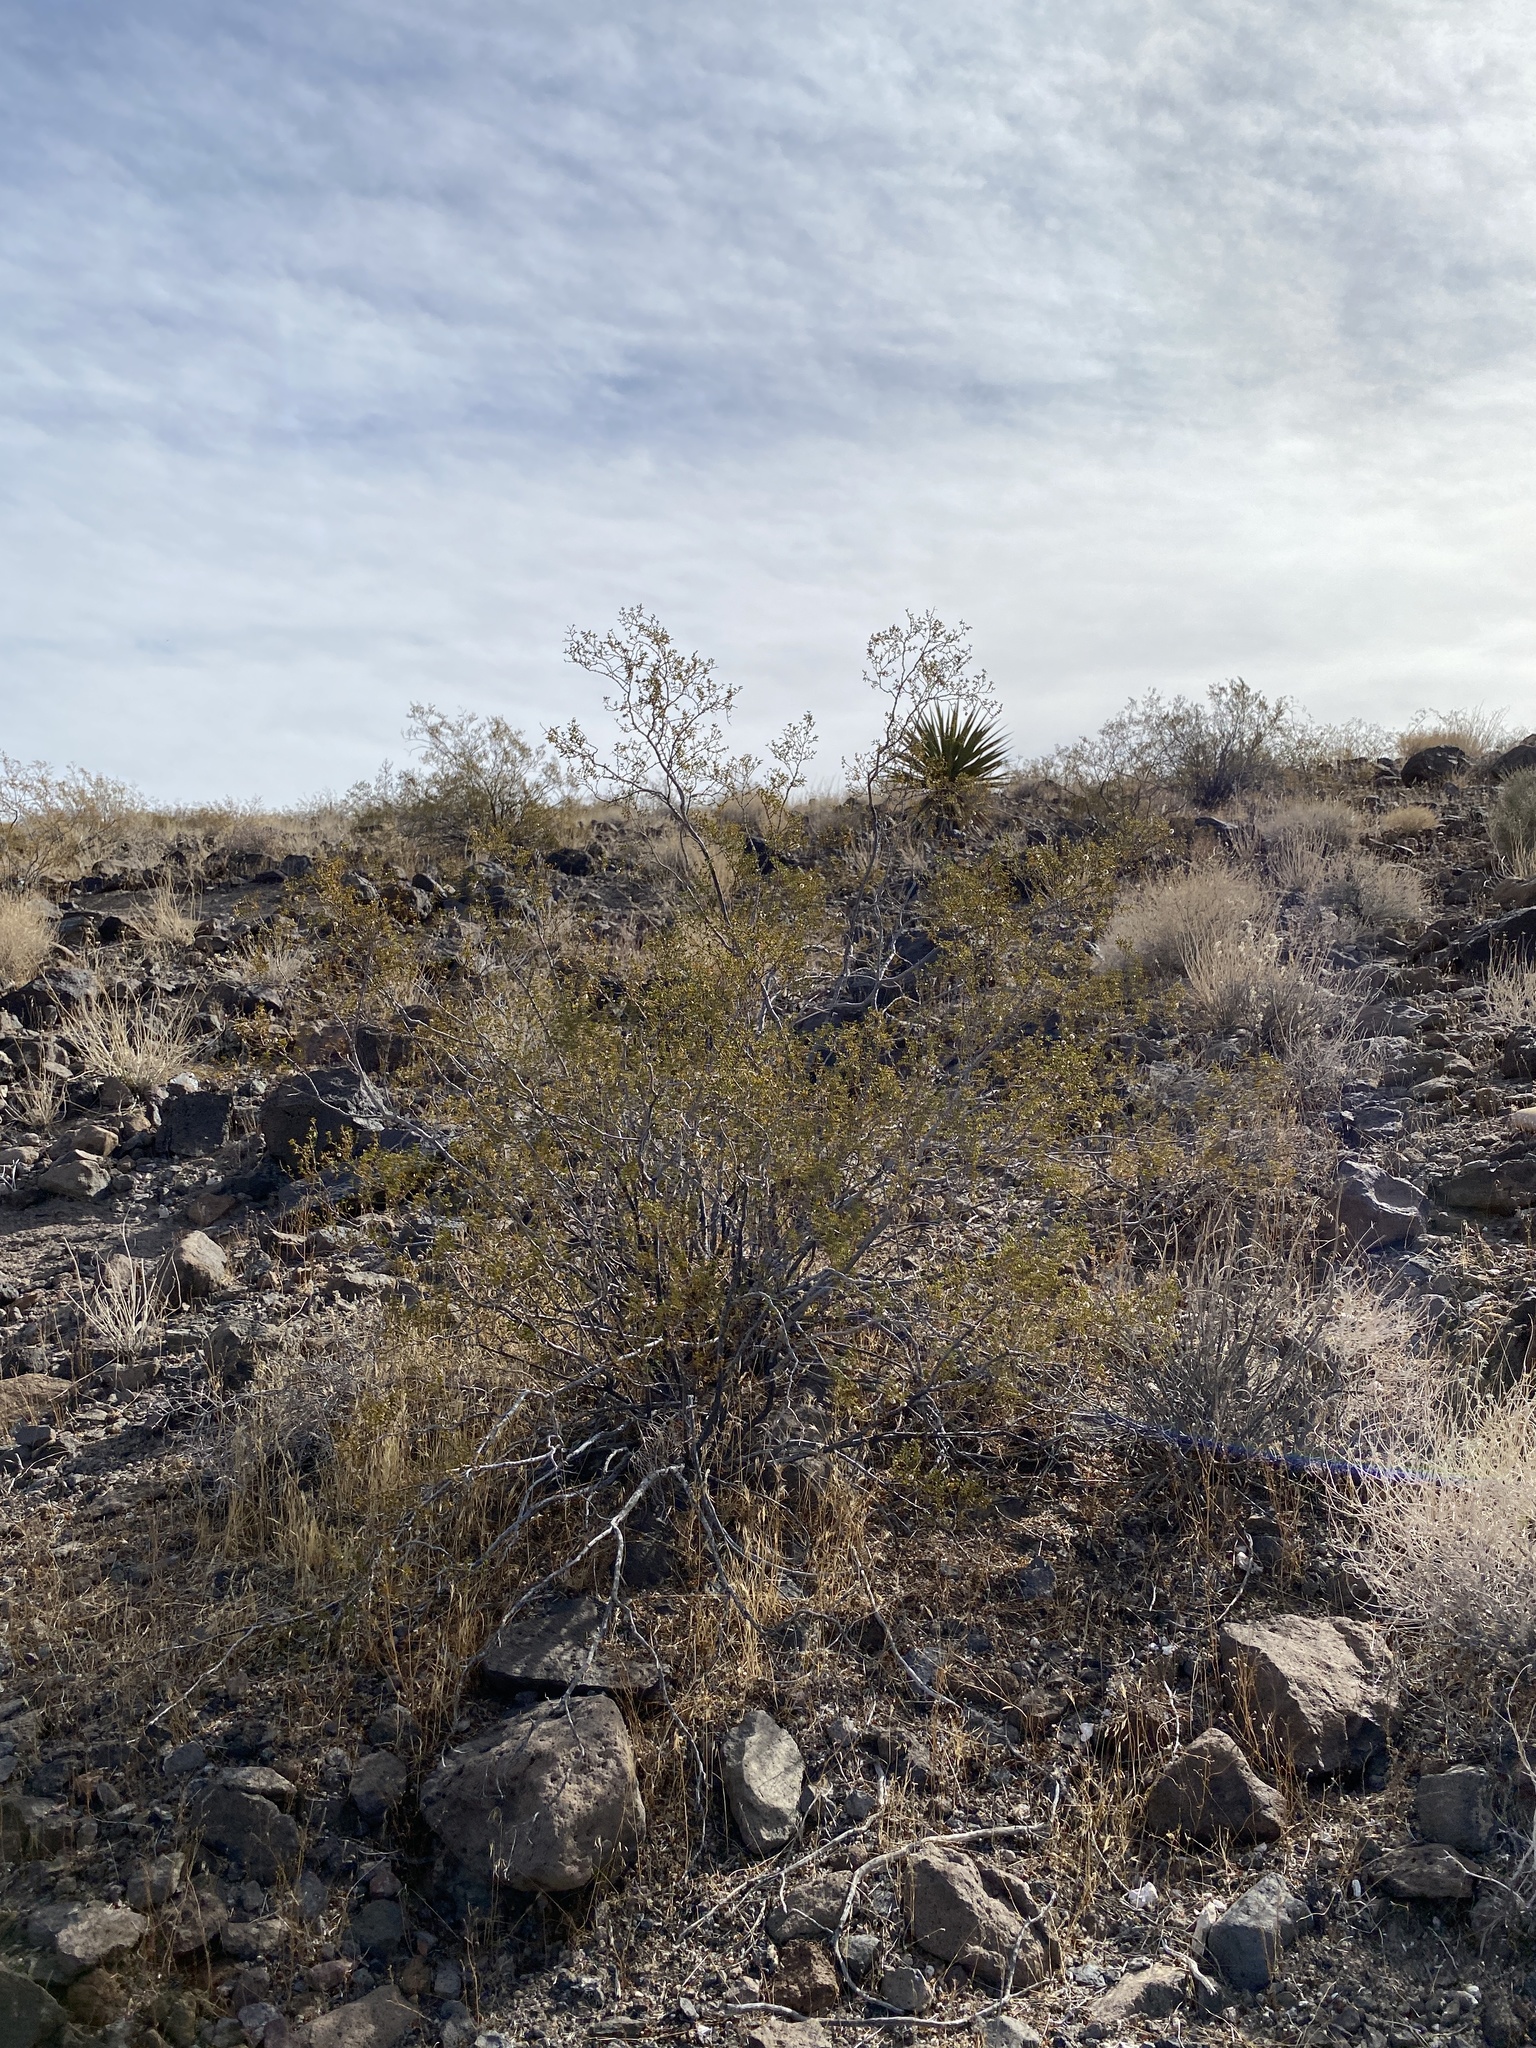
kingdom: Plantae
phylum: Tracheophyta
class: Magnoliopsida
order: Zygophyllales
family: Zygophyllaceae
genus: Larrea
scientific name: Larrea tridentata
